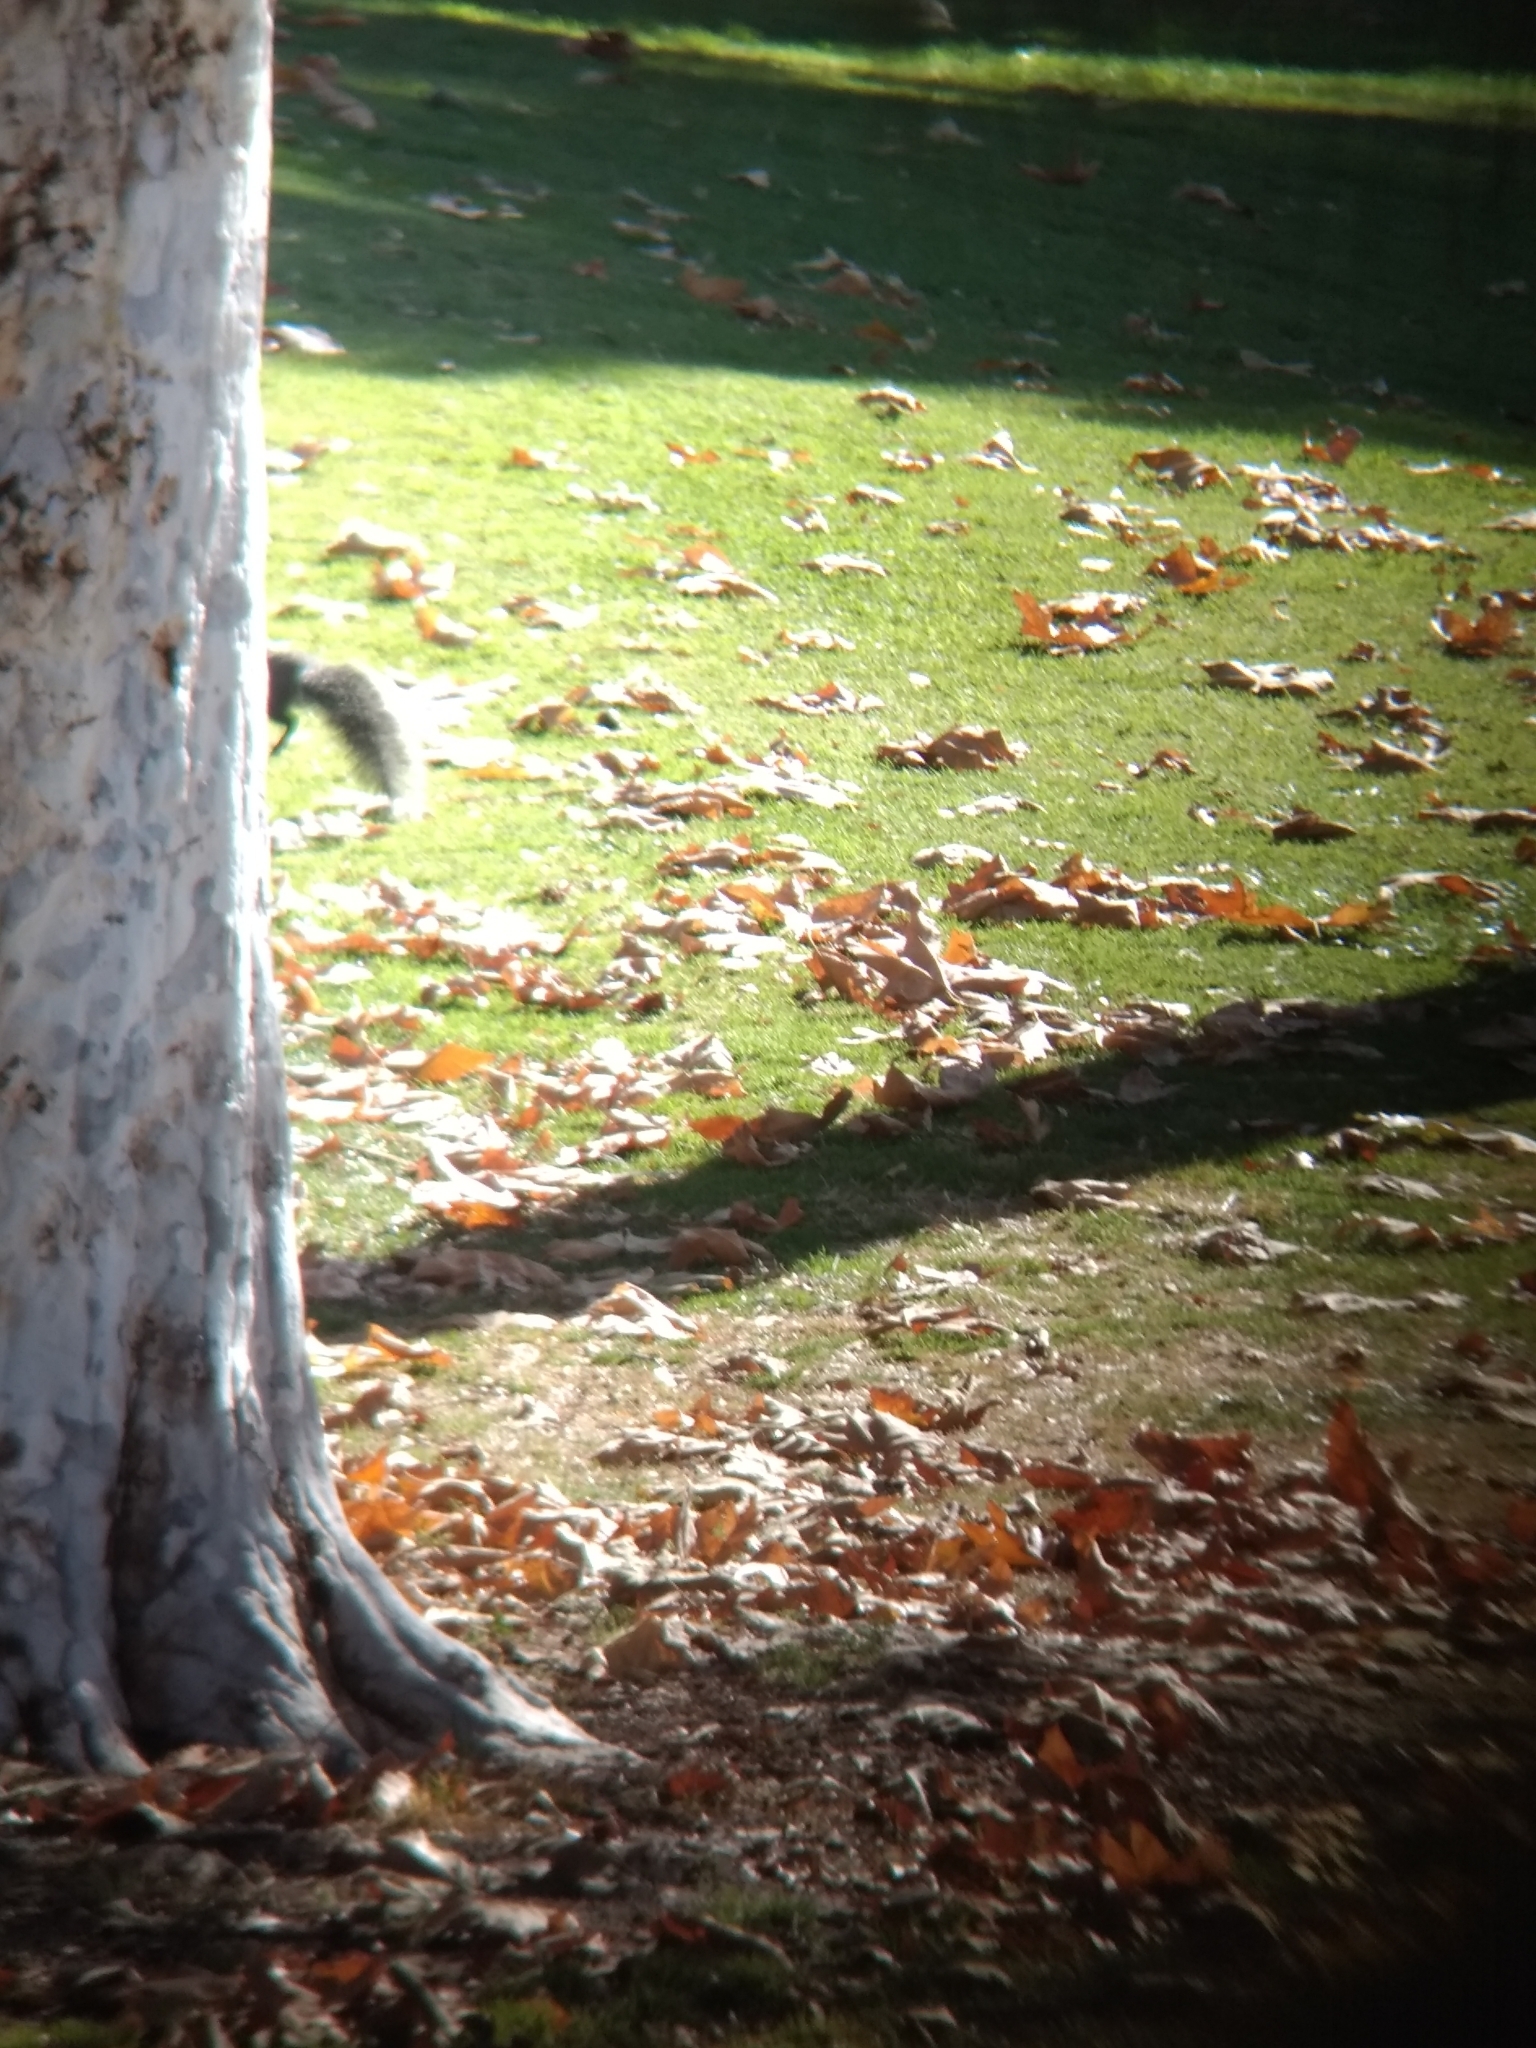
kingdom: Animalia
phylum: Chordata
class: Mammalia
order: Rodentia
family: Sciuridae
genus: Sciurus
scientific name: Sciurus griseus
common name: Western gray squirrel
